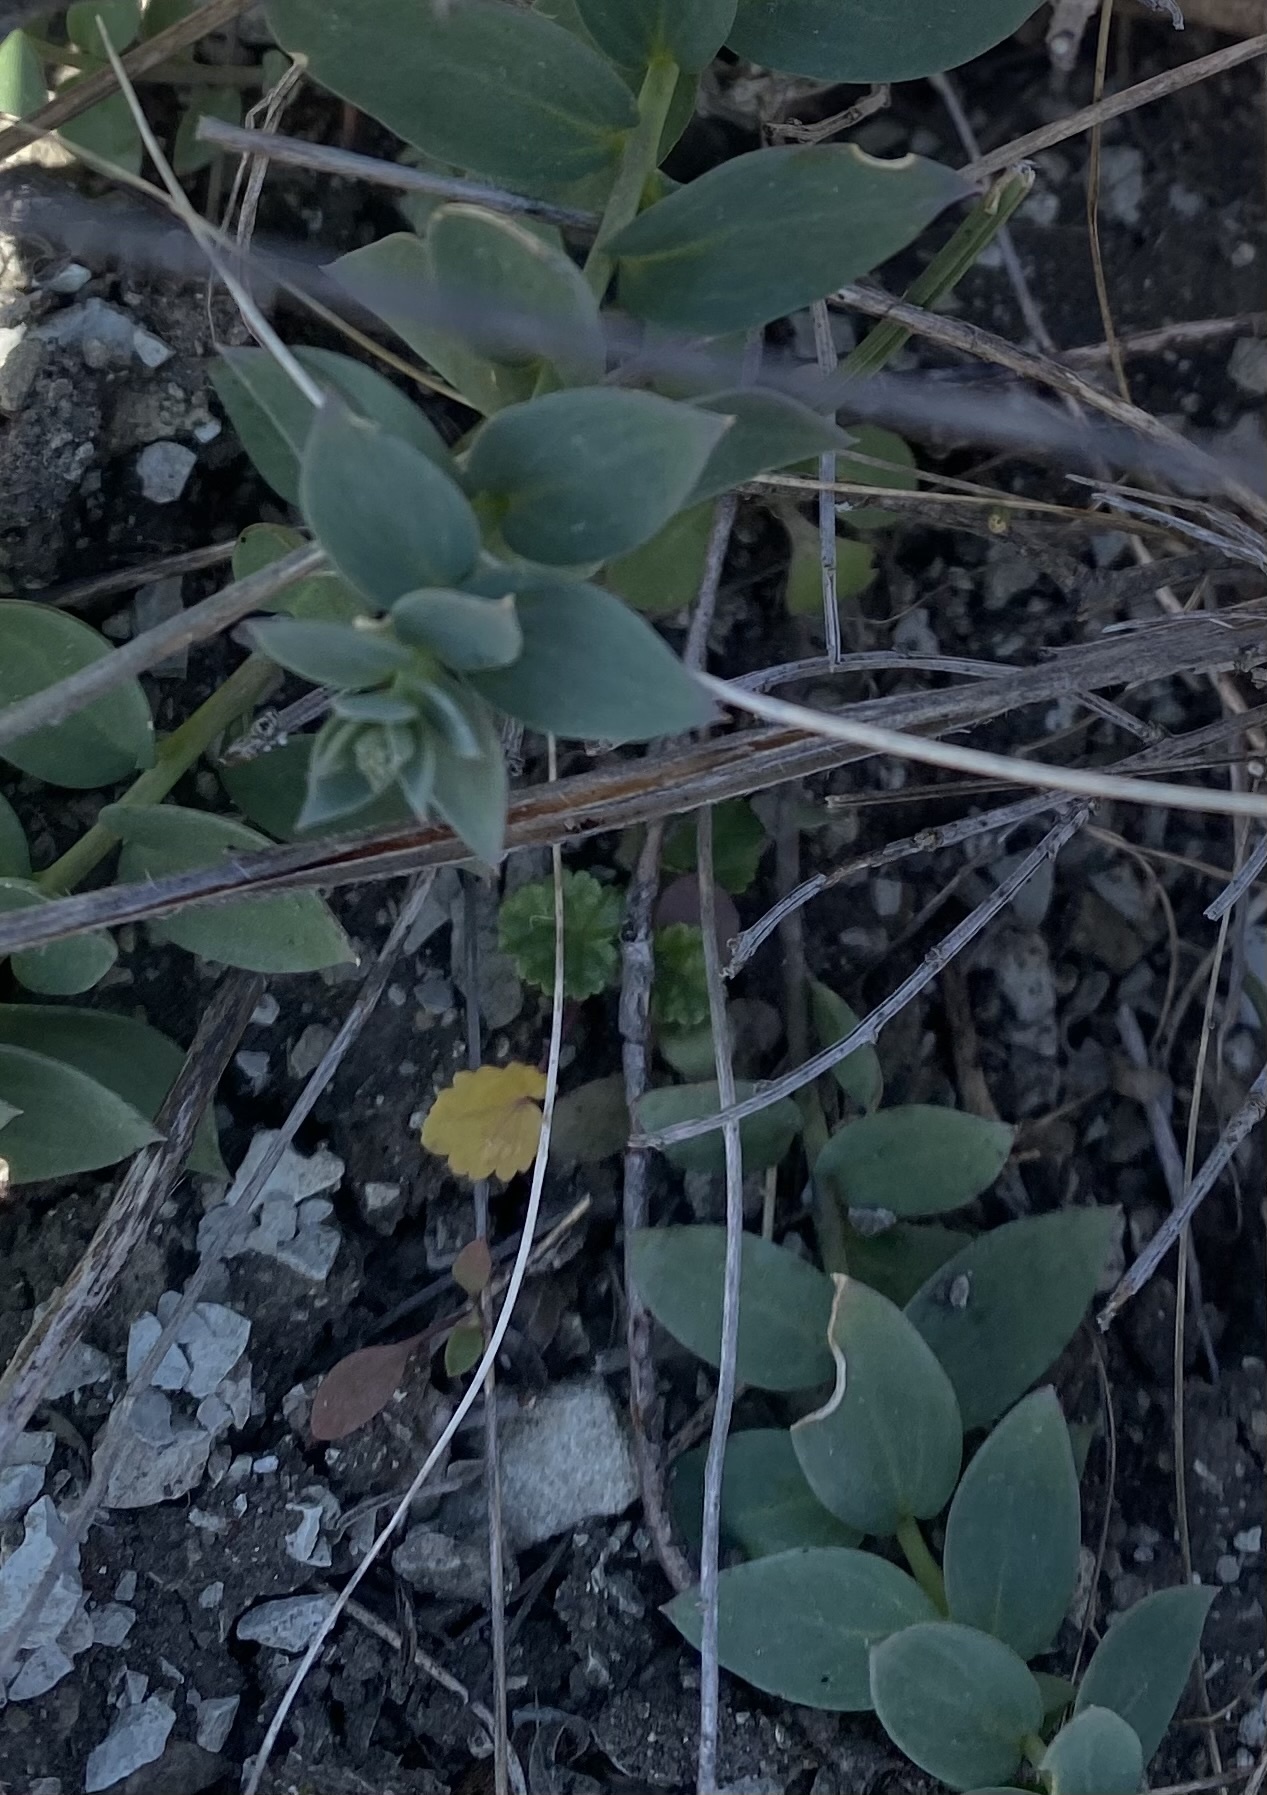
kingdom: Plantae
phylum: Tracheophyta
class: Magnoliopsida
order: Lamiales
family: Plantaginaceae
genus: Linaria
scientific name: Linaria genistifolia
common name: Broomleaf toadflax
